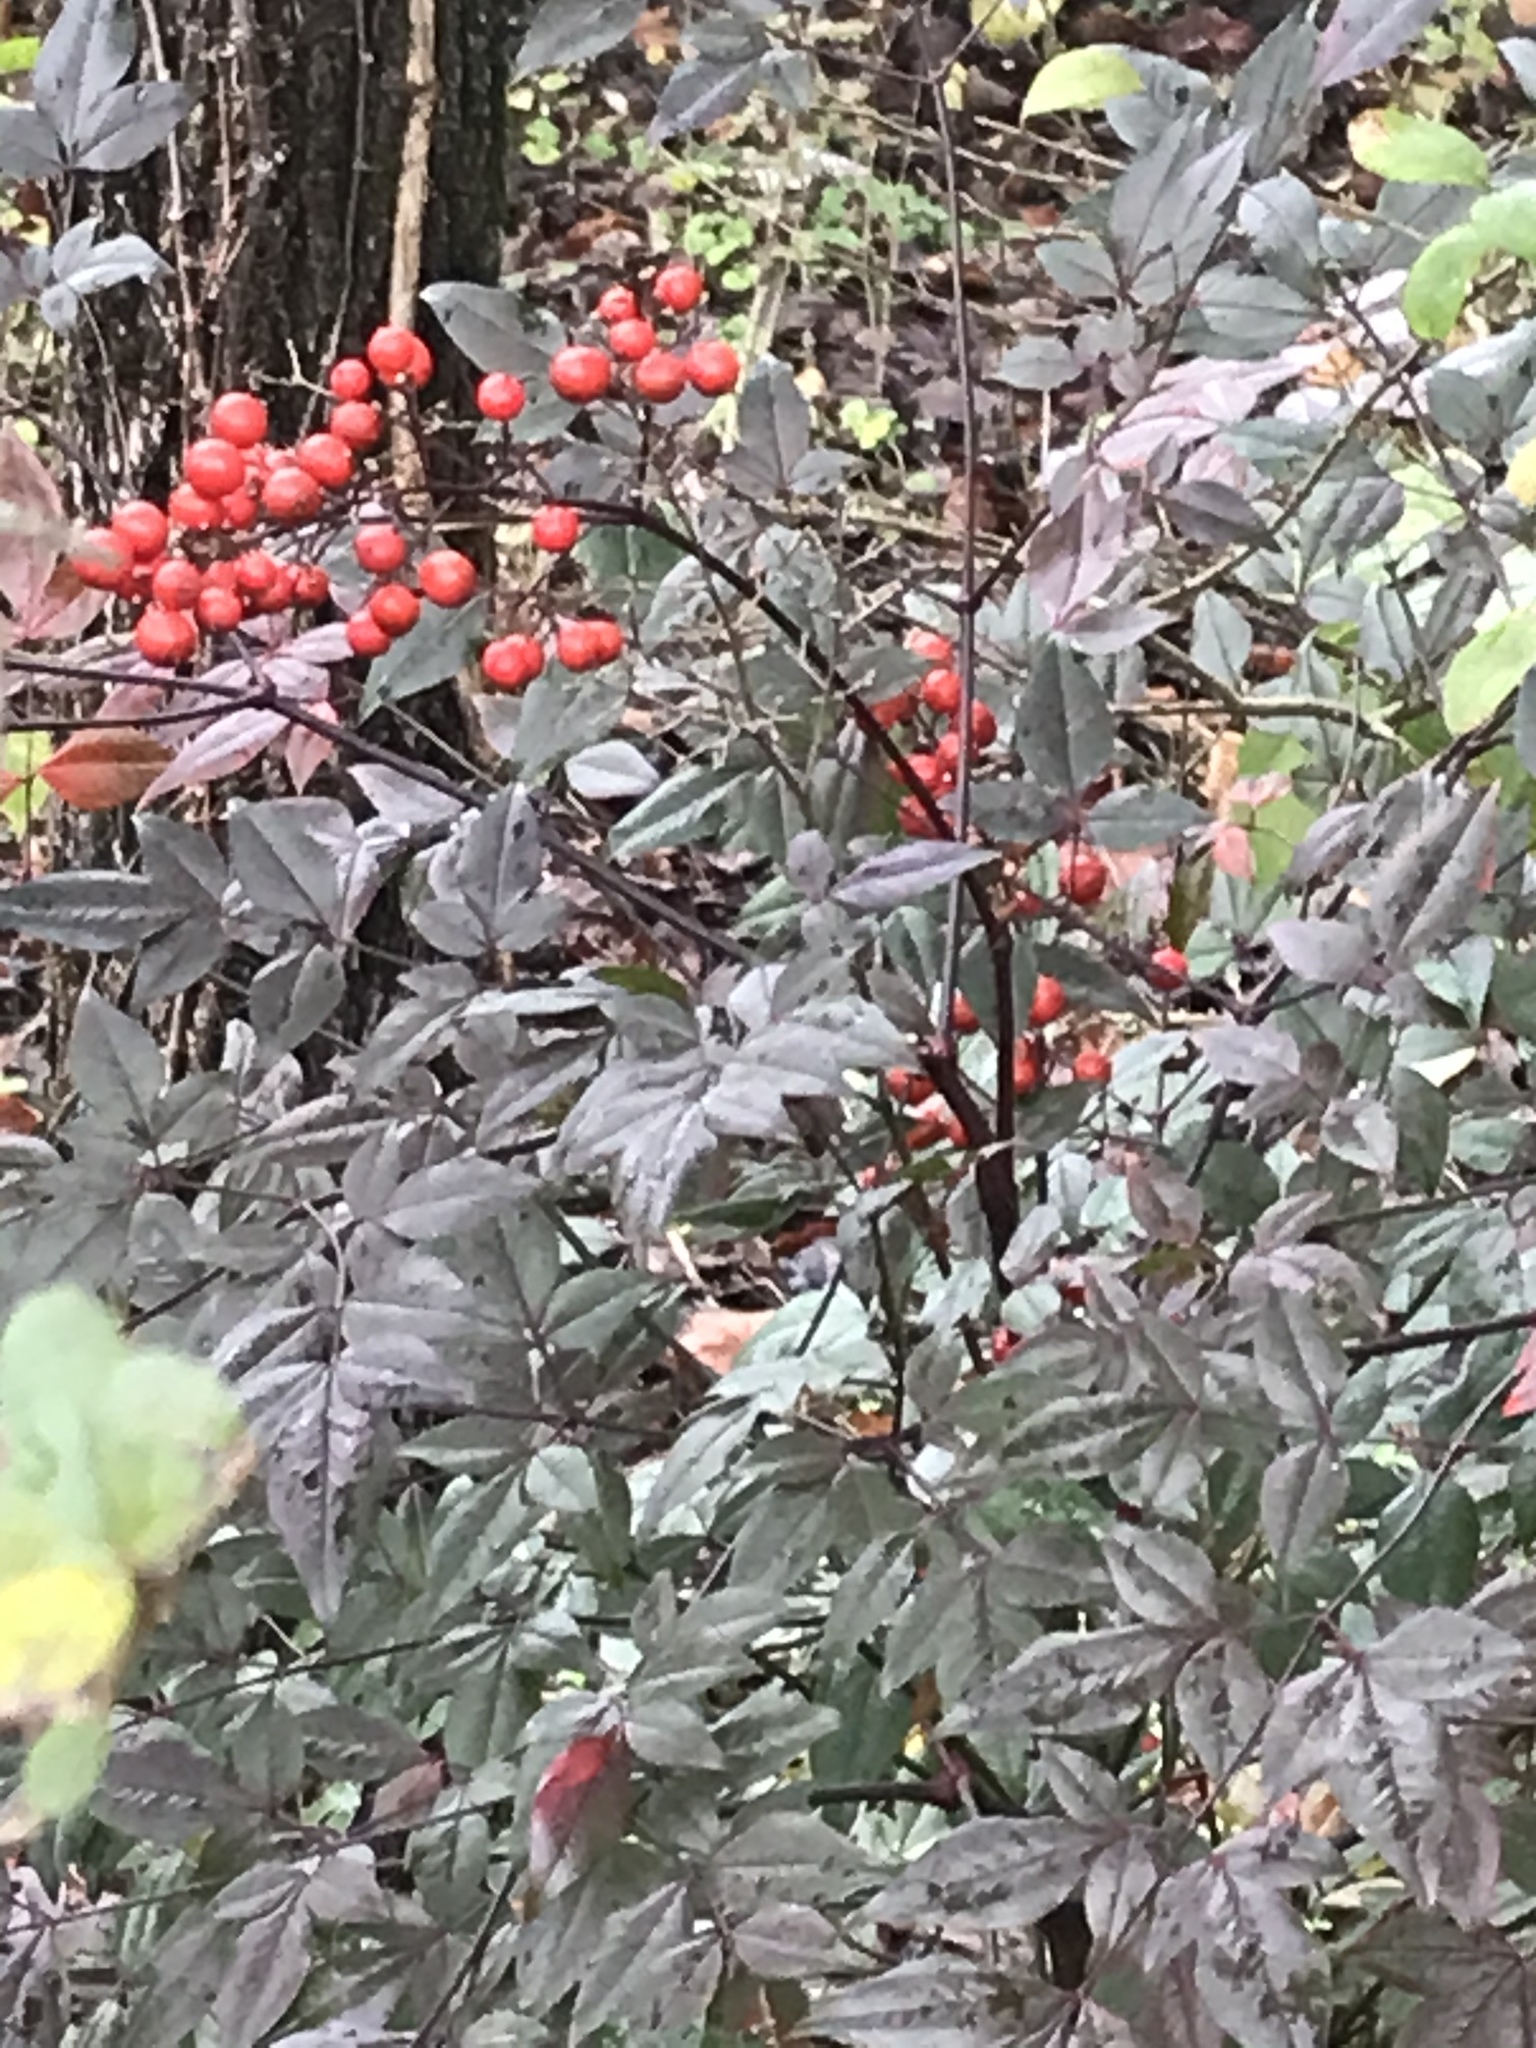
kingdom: Plantae
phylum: Tracheophyta
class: Magnoliopsida
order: Ranunculales
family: Berberidaceae
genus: Nandina
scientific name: Nandina domestica
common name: Sacred bamboo
